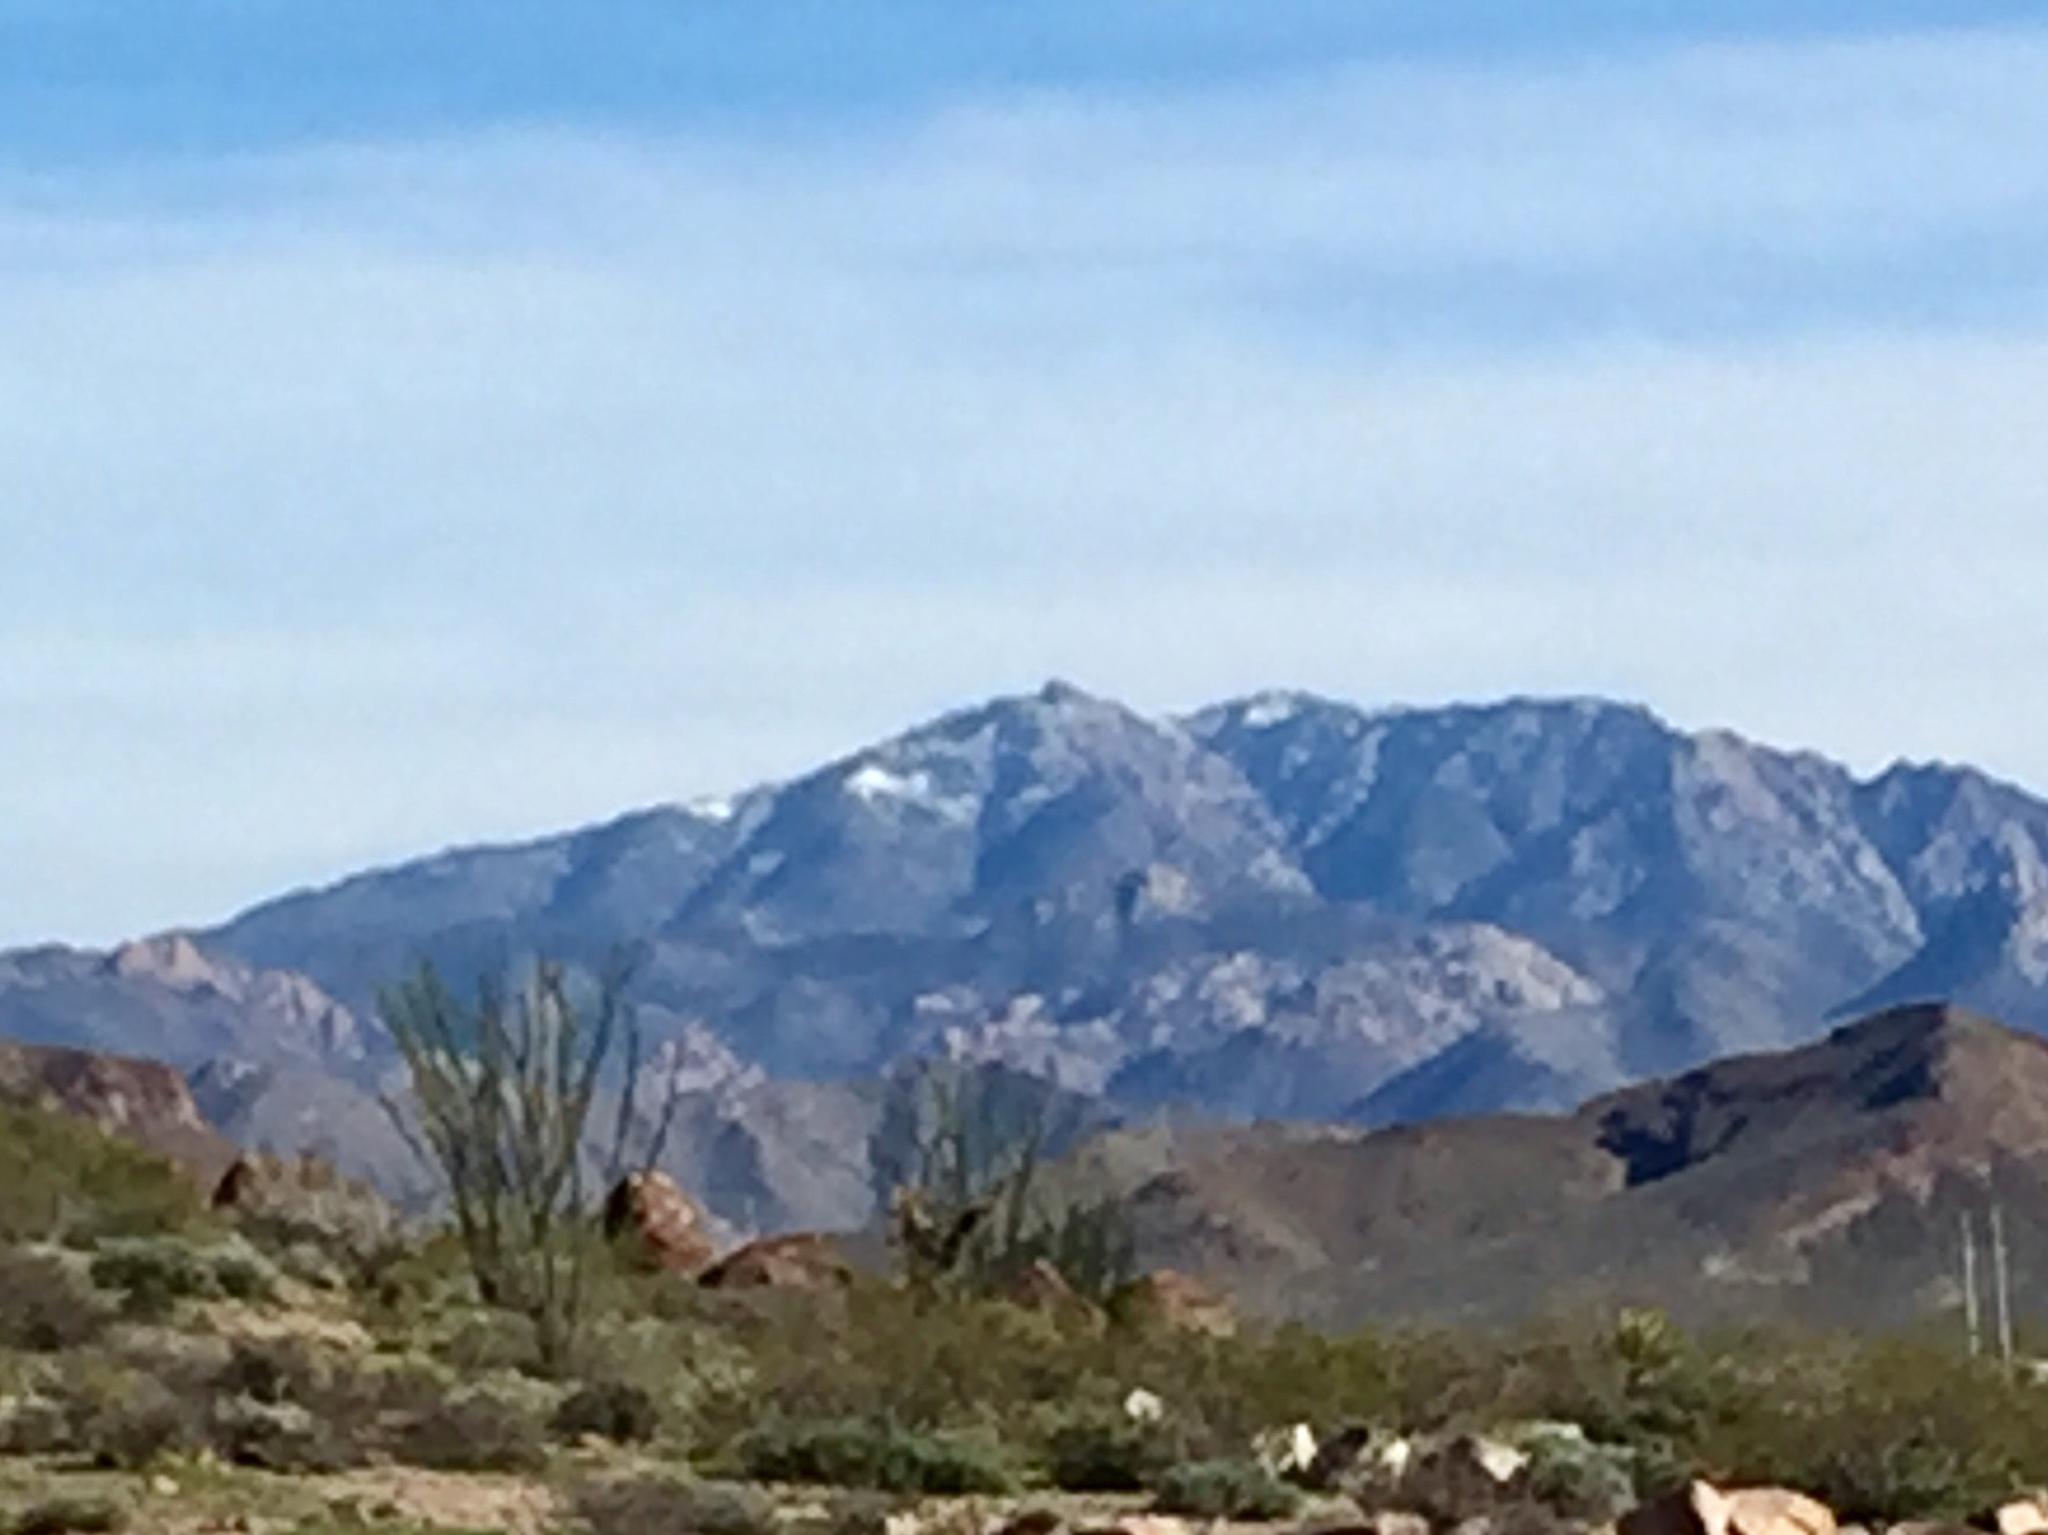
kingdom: Plantae
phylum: Tracheophyta
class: Magnoliopsida
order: Ericales
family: Fouquieriaceae
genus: Fouquieria
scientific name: Fouquieria splendens
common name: Vine-cactus
